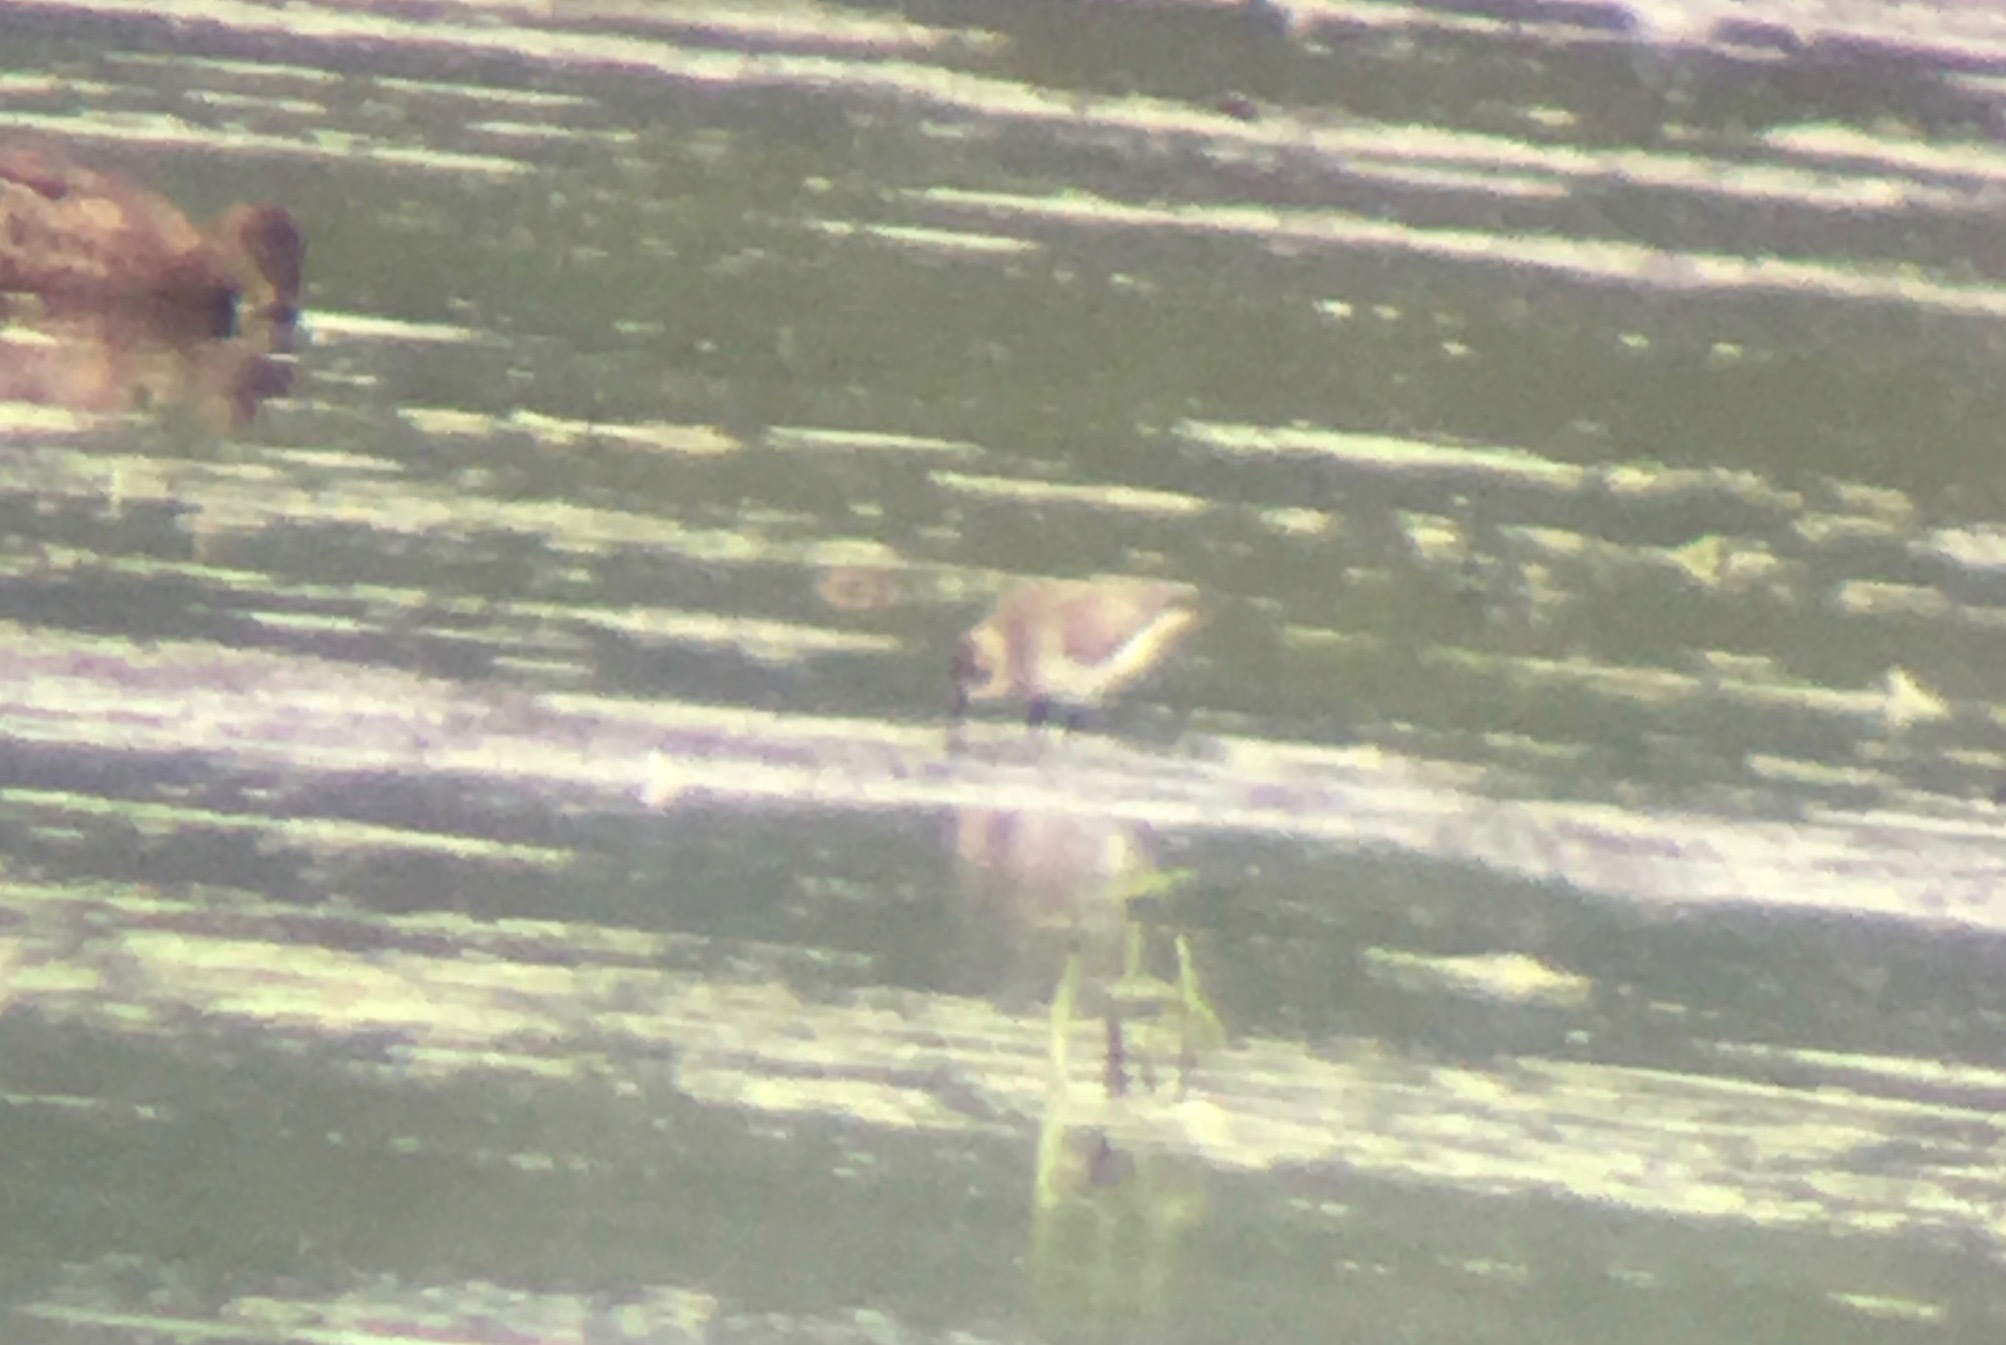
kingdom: Animalia
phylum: Chordata
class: Aves
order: Charadriiformes
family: Scolopacidae
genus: Calidris
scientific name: Calidris pusilla
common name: Semipalmated sandpiper
